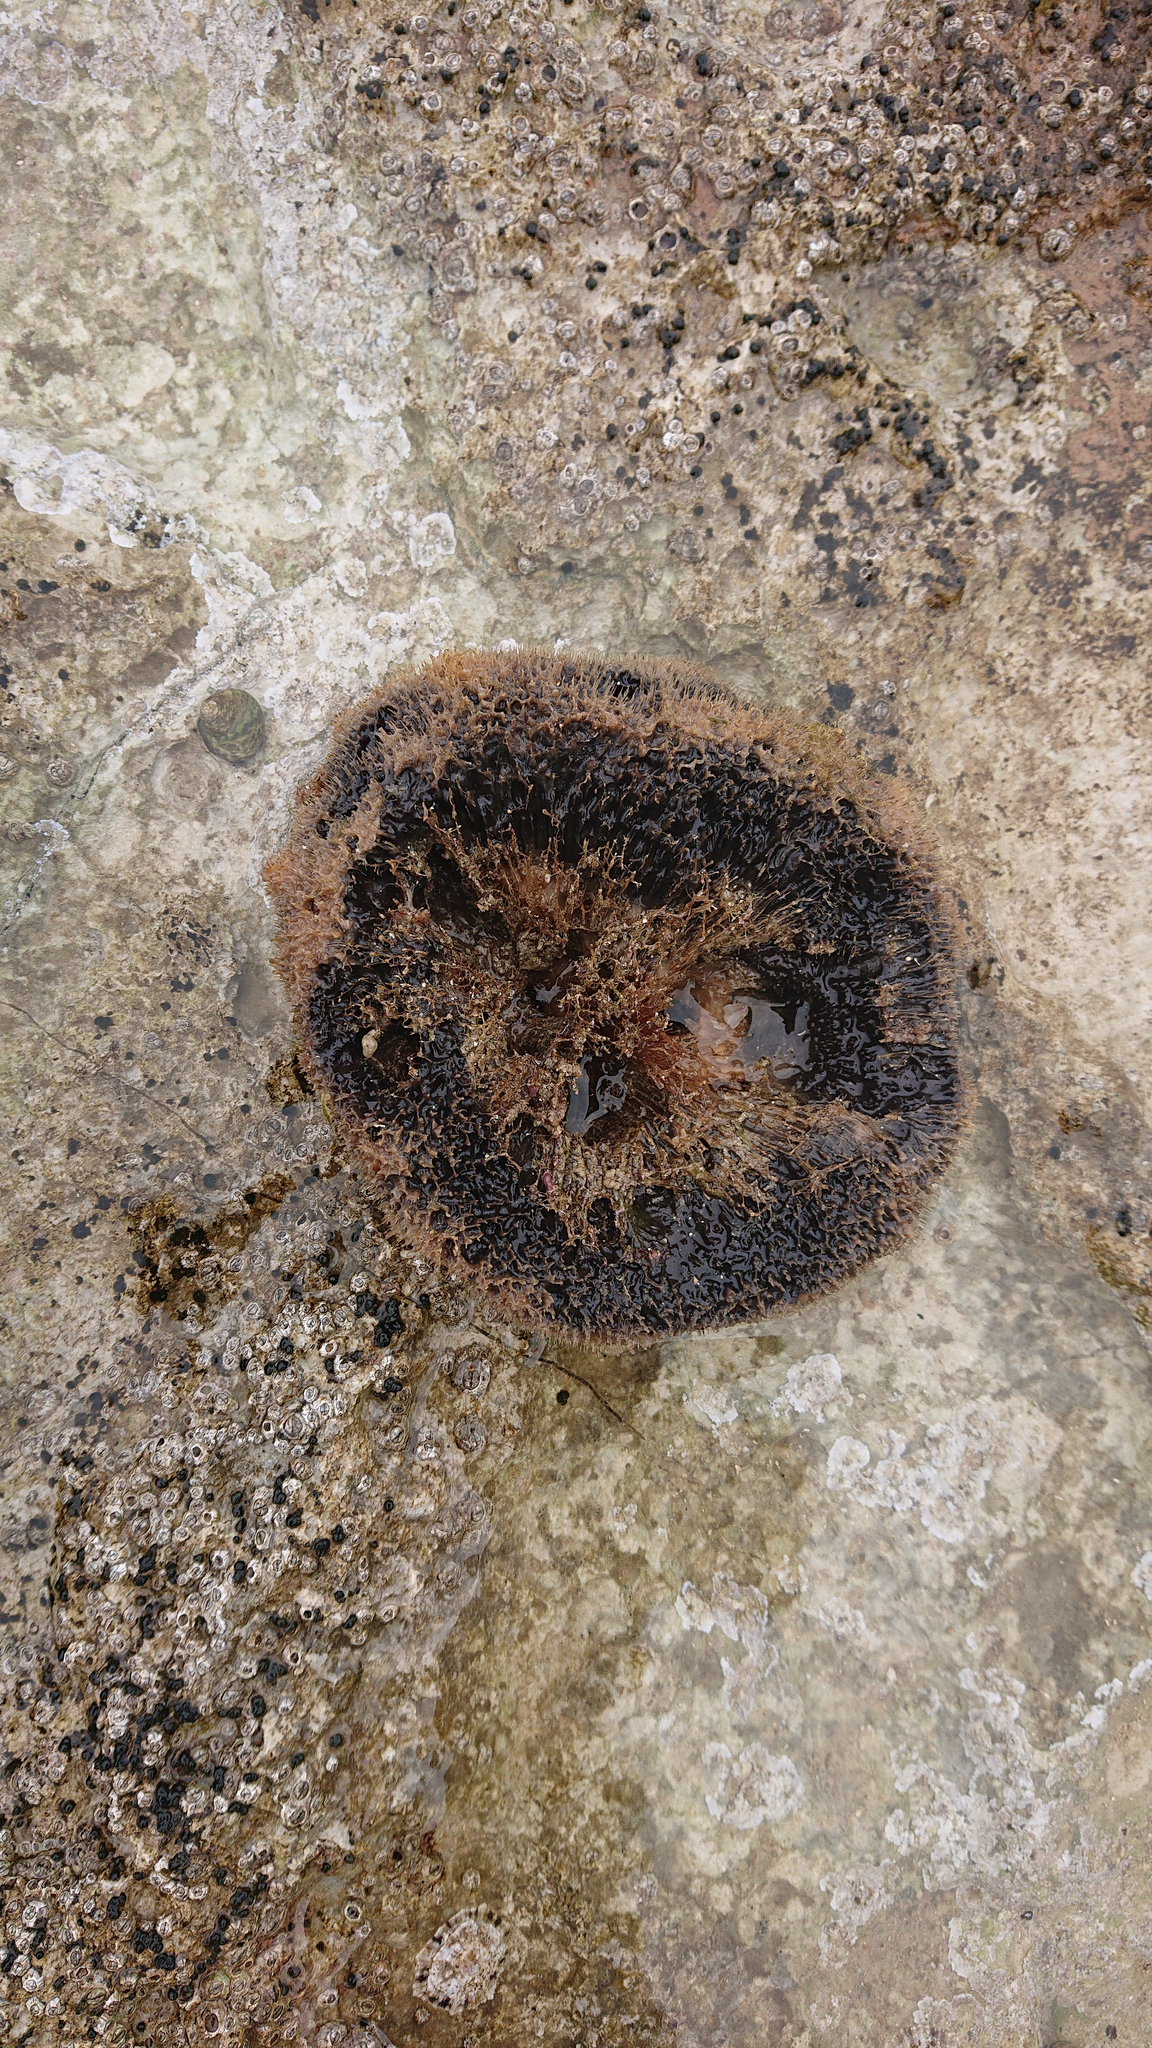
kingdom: Animalia
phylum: Porifera
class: Demospongiae
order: Dictyoceratida
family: Irciniidae
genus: Sarcotragus
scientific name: Sarcotragus spinosulus
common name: Black leather sponge
